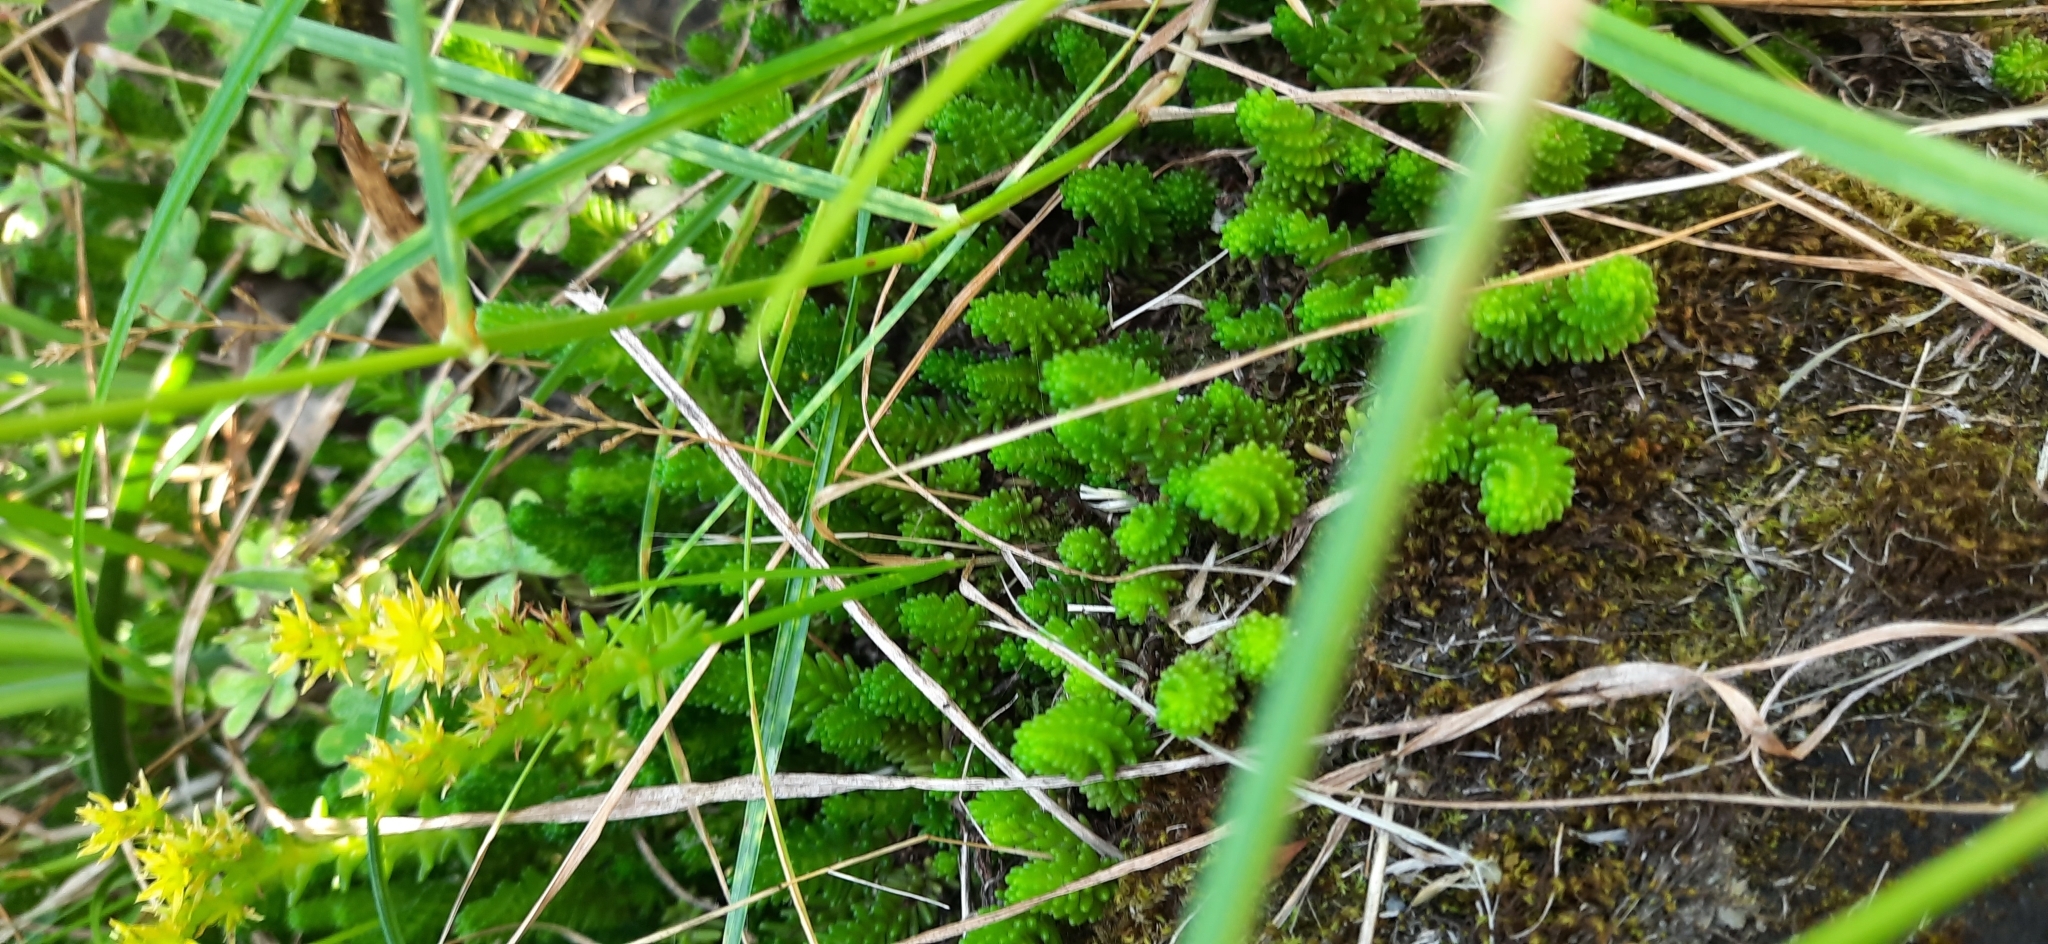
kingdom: Plantae
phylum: Tracheophyta
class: Magnoliopsida
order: Saxifragales
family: Crassulaceae
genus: Sedum
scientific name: Sedum sexangulare
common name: Tasteless stonecrop
